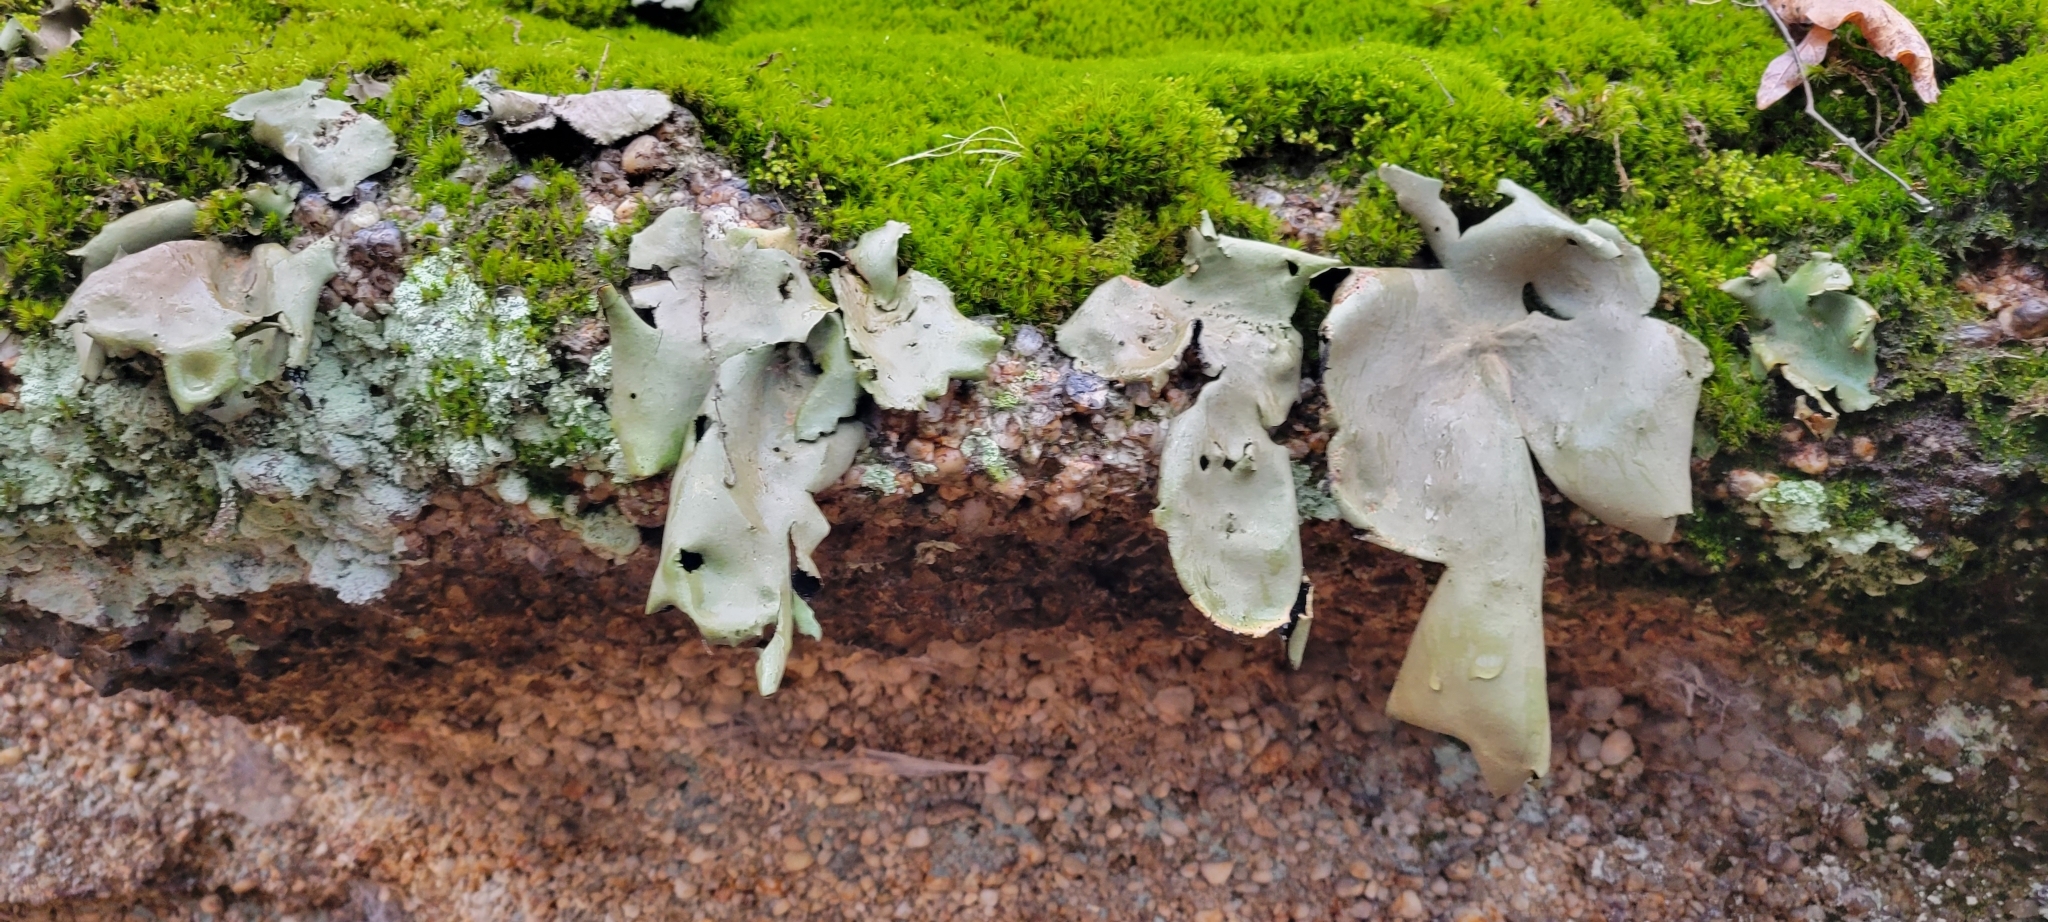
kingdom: Fungi
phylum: Ascomycota
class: Lecanoromycetes
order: Umbilicariales
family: Umbilicariaceae
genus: Umbilicaria
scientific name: Umbilicaria mammulata
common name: Smooth rock tripe
